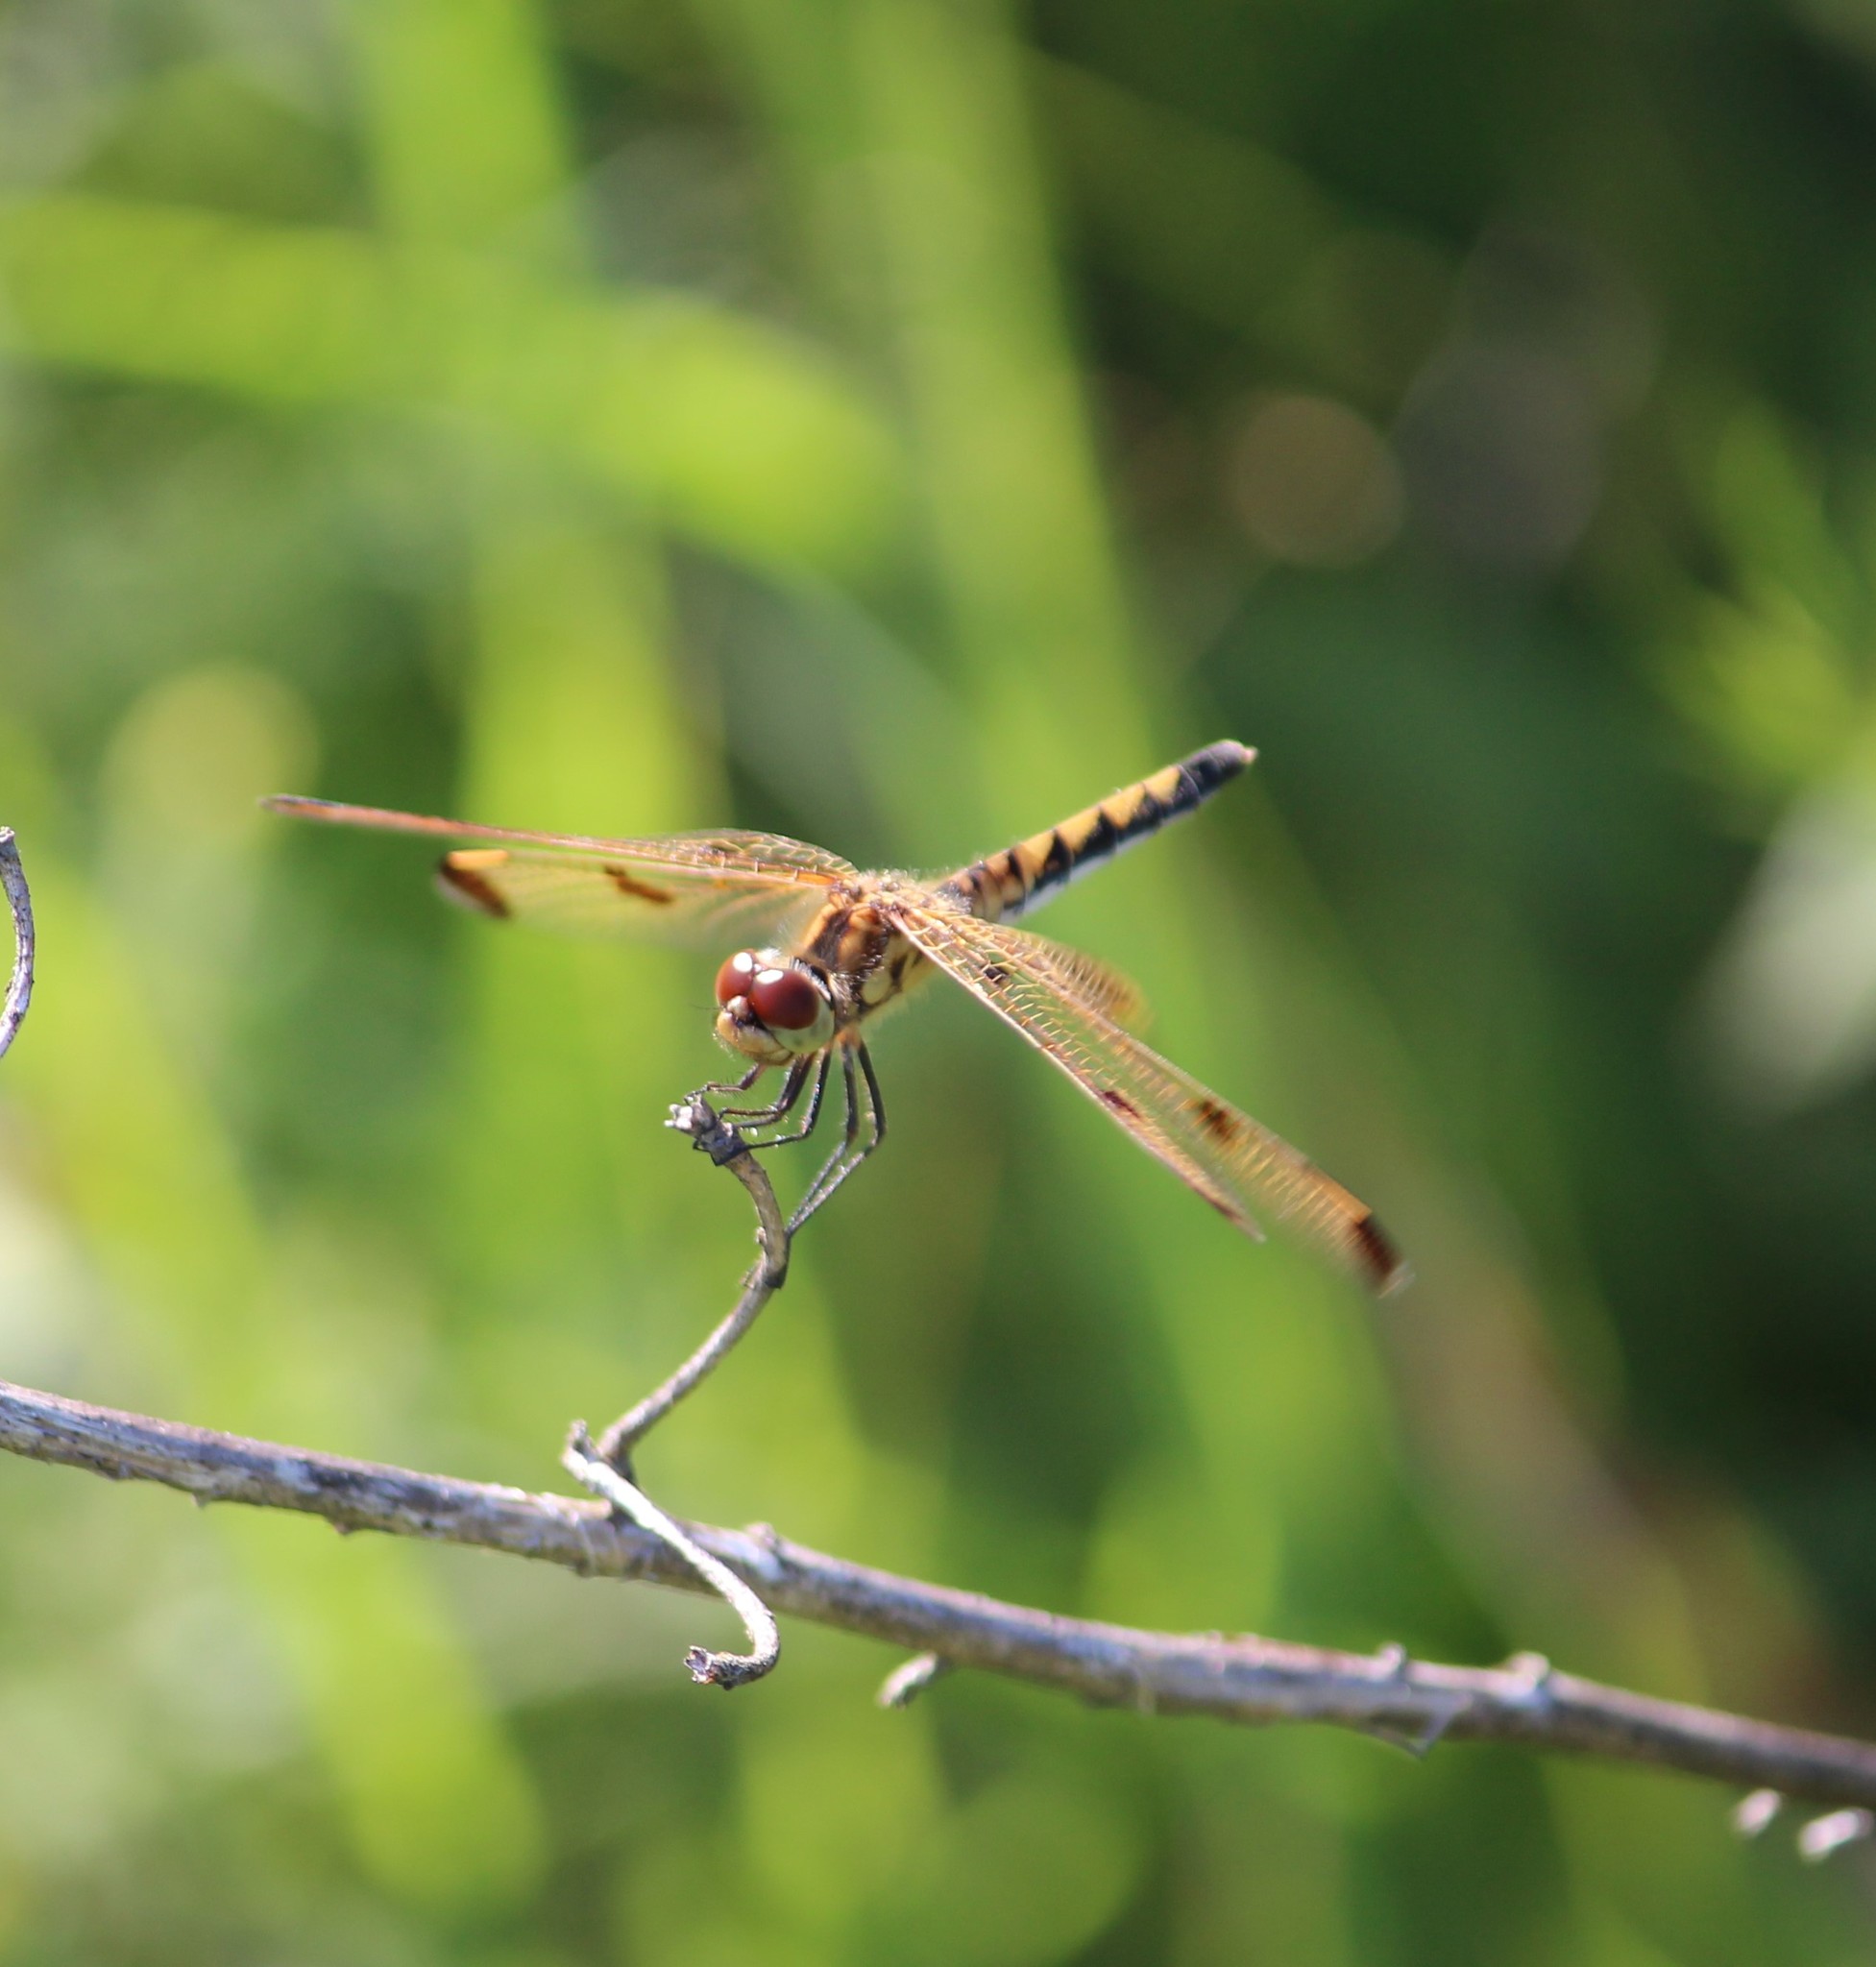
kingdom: Animalia
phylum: Arthropoda
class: Insecta
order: Odonata
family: Libellulidae
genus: Celithemis
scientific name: Celithemis elisa
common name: Calico pennant
